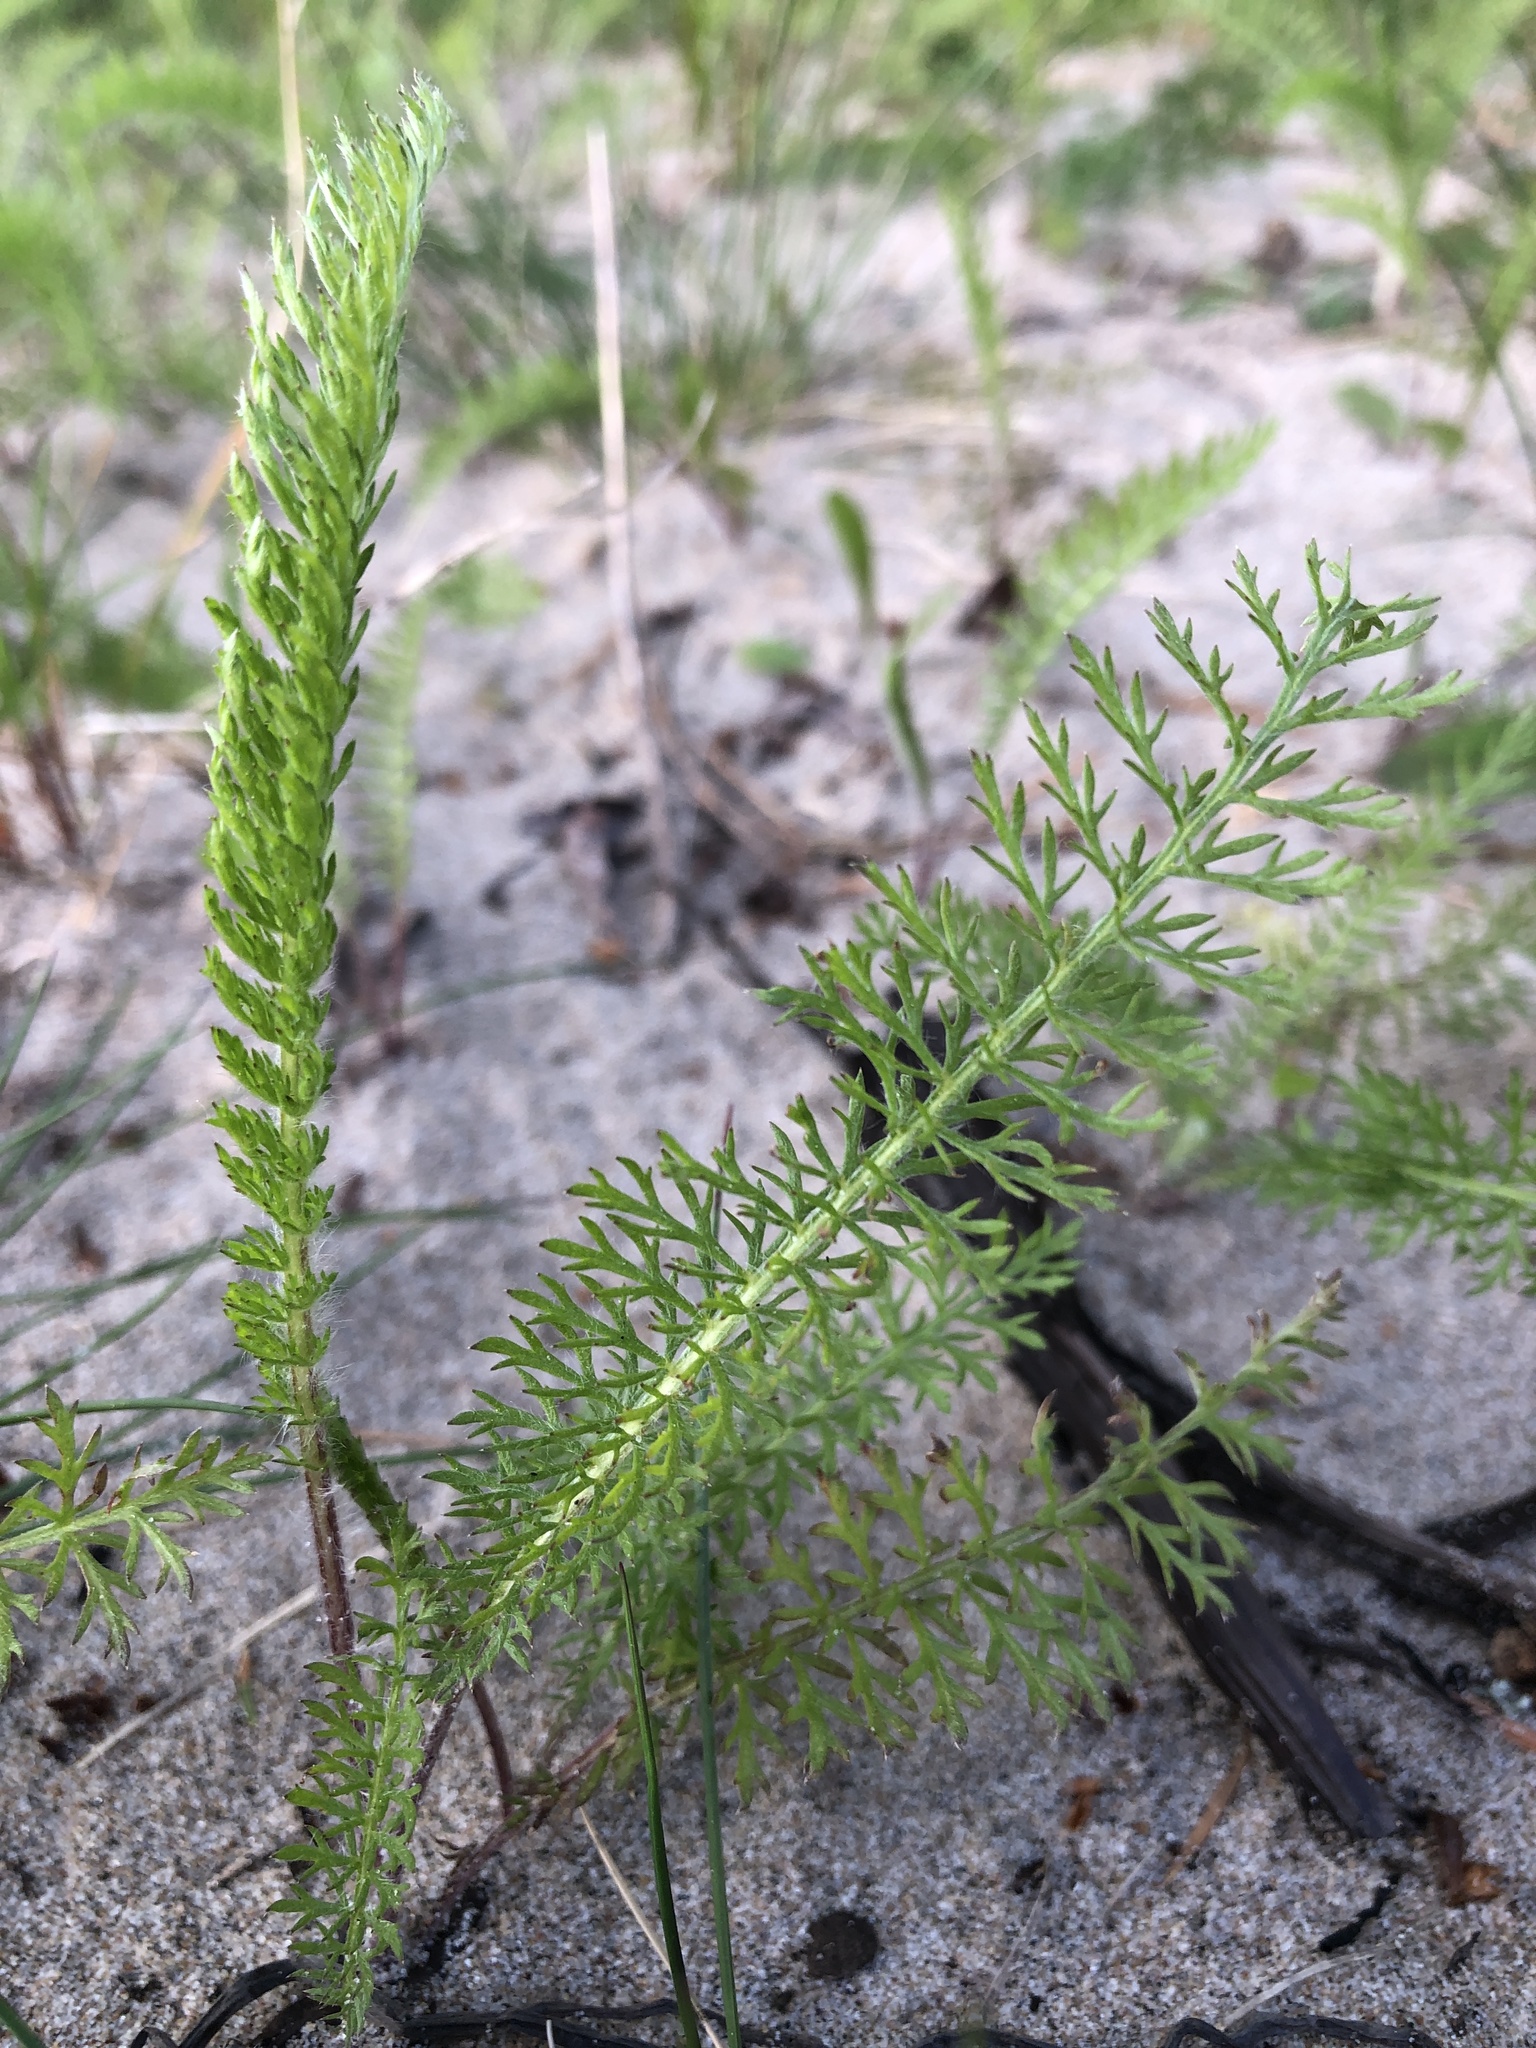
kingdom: Plantae
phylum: Tracheophyta
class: Magnoliopsida
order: Asterales
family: Asteraceae
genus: Achillea
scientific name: Achillea millefolium
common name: Yarrow
